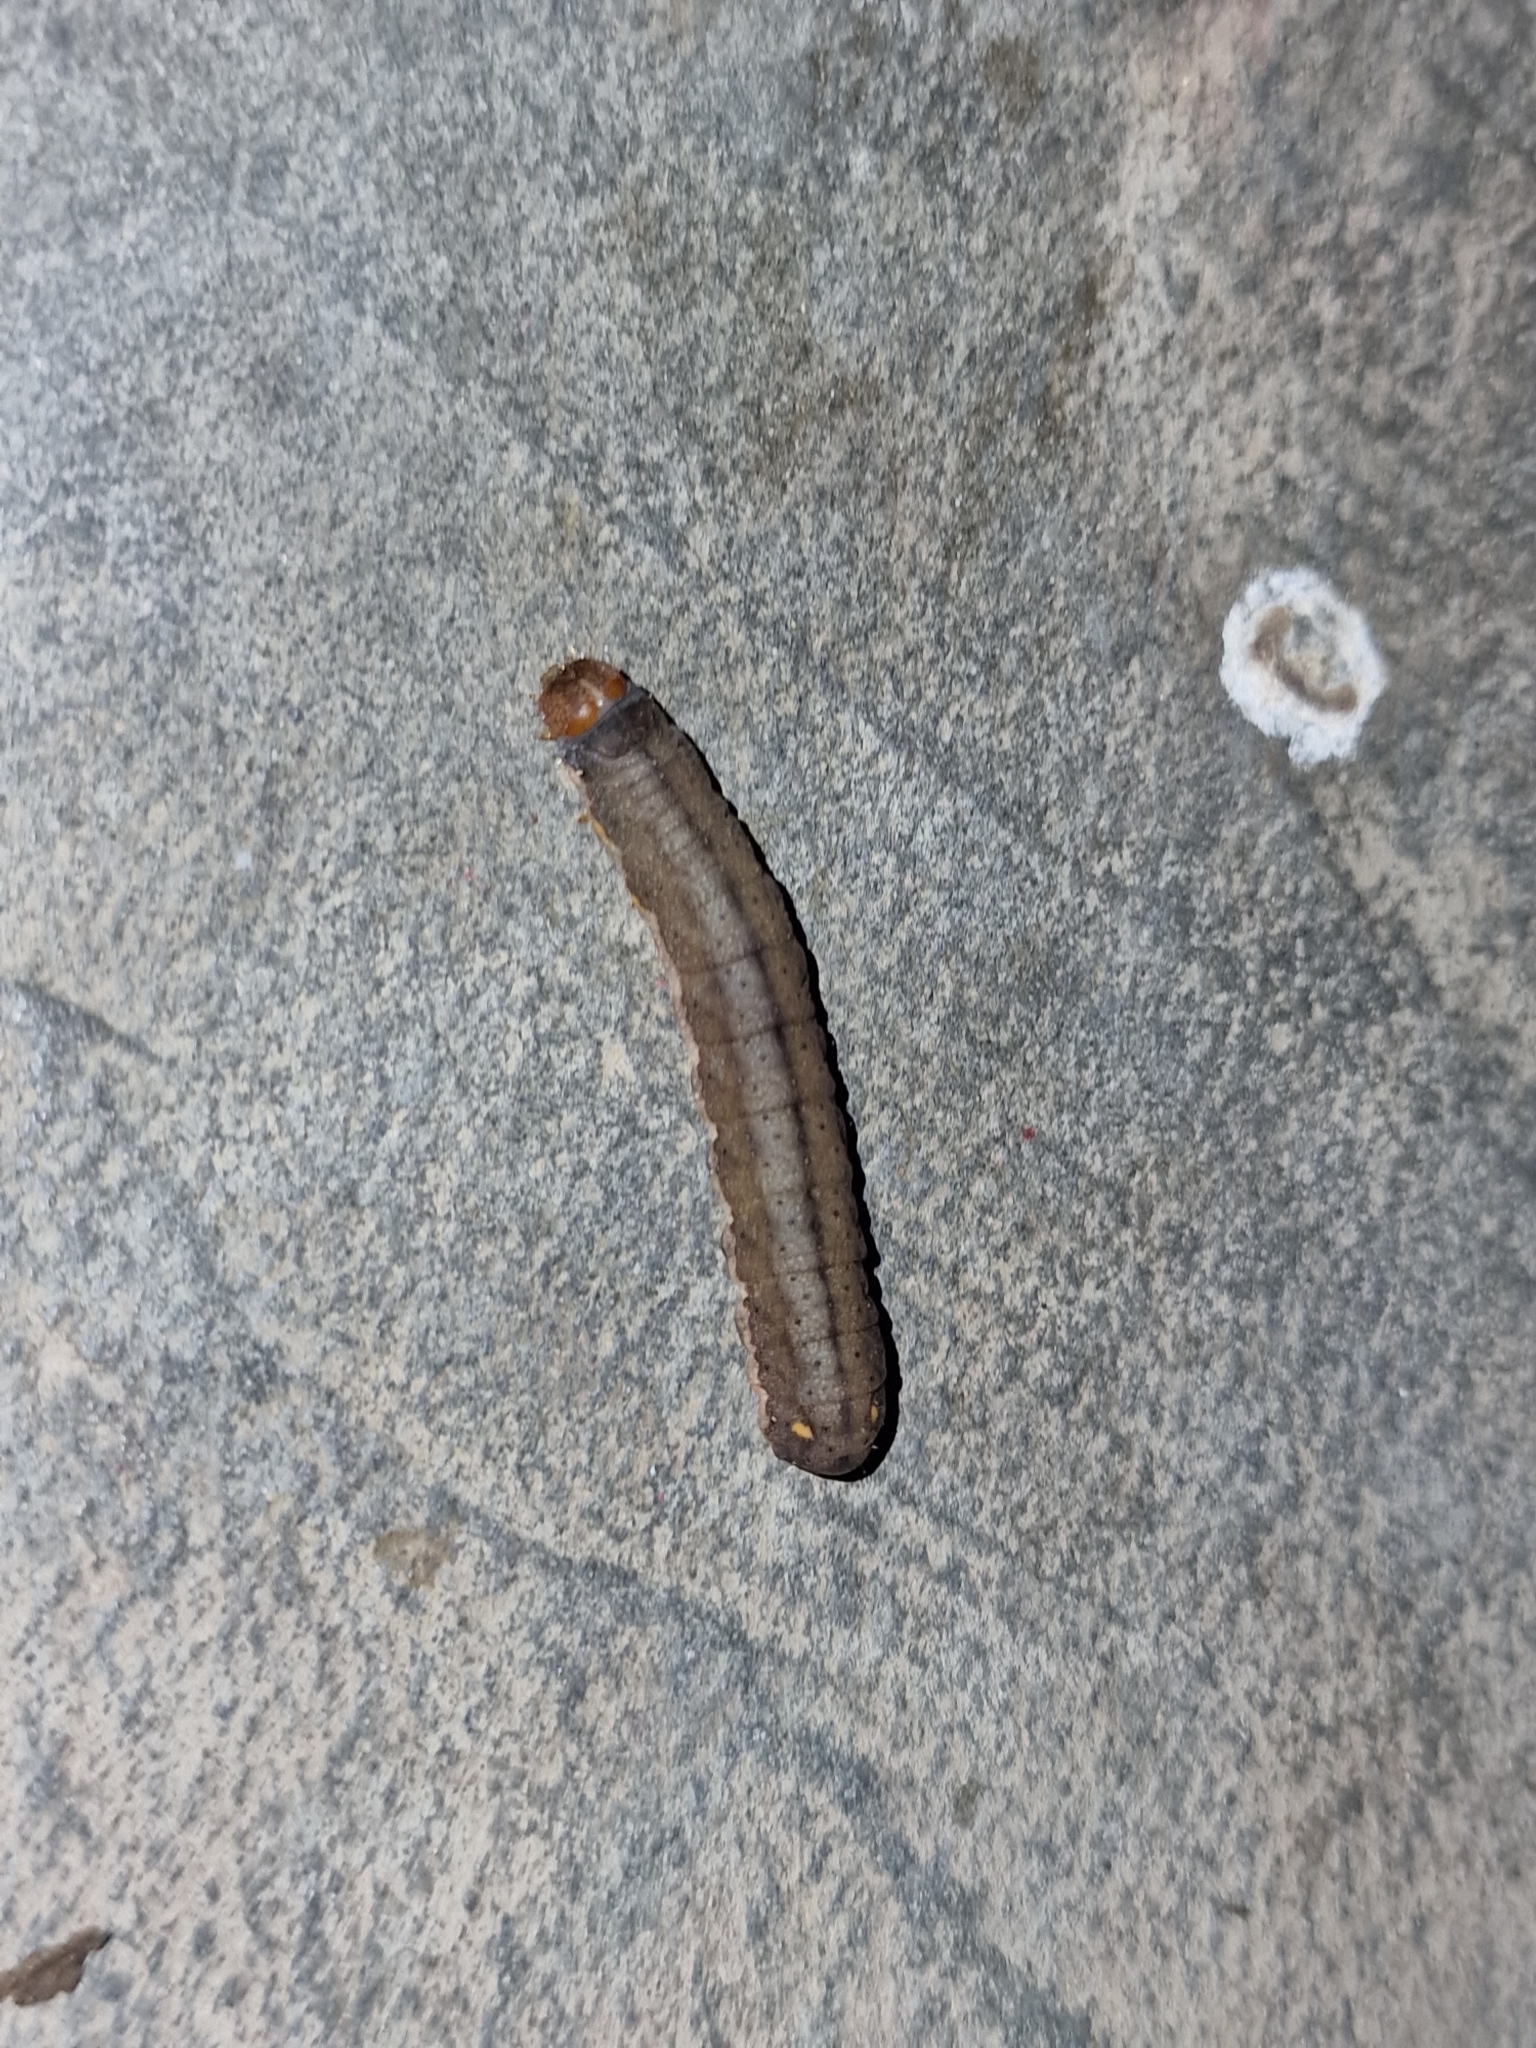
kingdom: Animalia
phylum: Arthropoda
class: Insecta
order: Lepidoptera
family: Noctuidae
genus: Trachea
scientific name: Trachea atriplicis
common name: Orache moth
